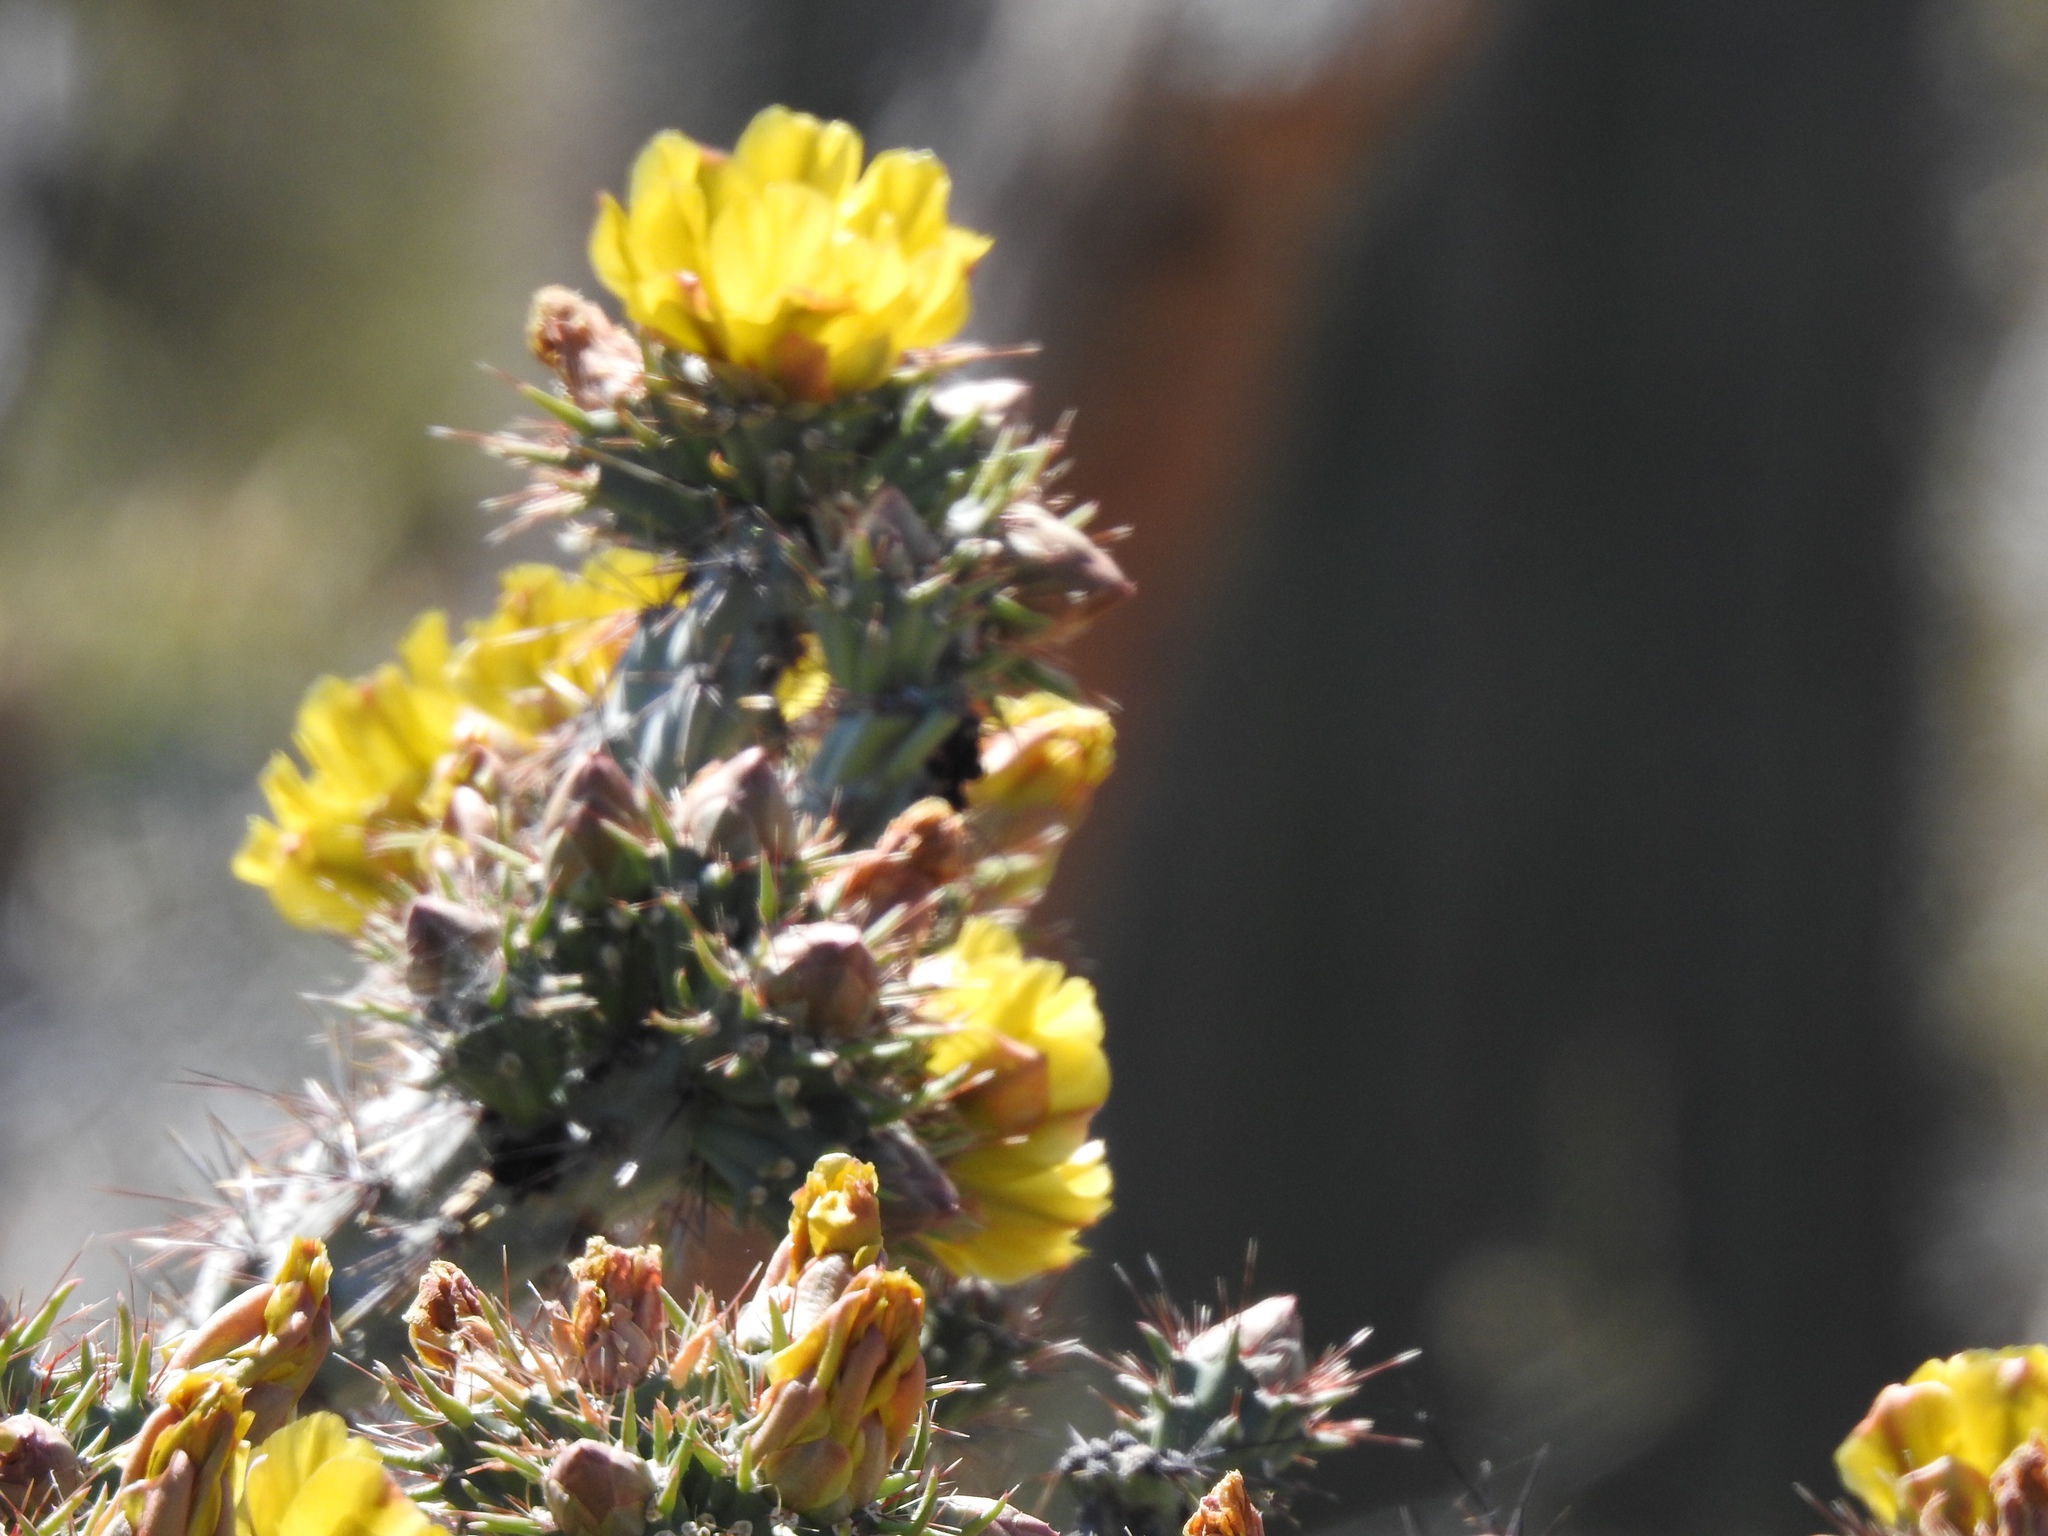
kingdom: Plantae
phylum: Tracheophyta
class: Magnoliopsida
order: Caryophyllales
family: Cactaceae
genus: Cylindropuntia
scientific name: Cylindropuntia acanthocarpa
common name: Buckhorn cholla
